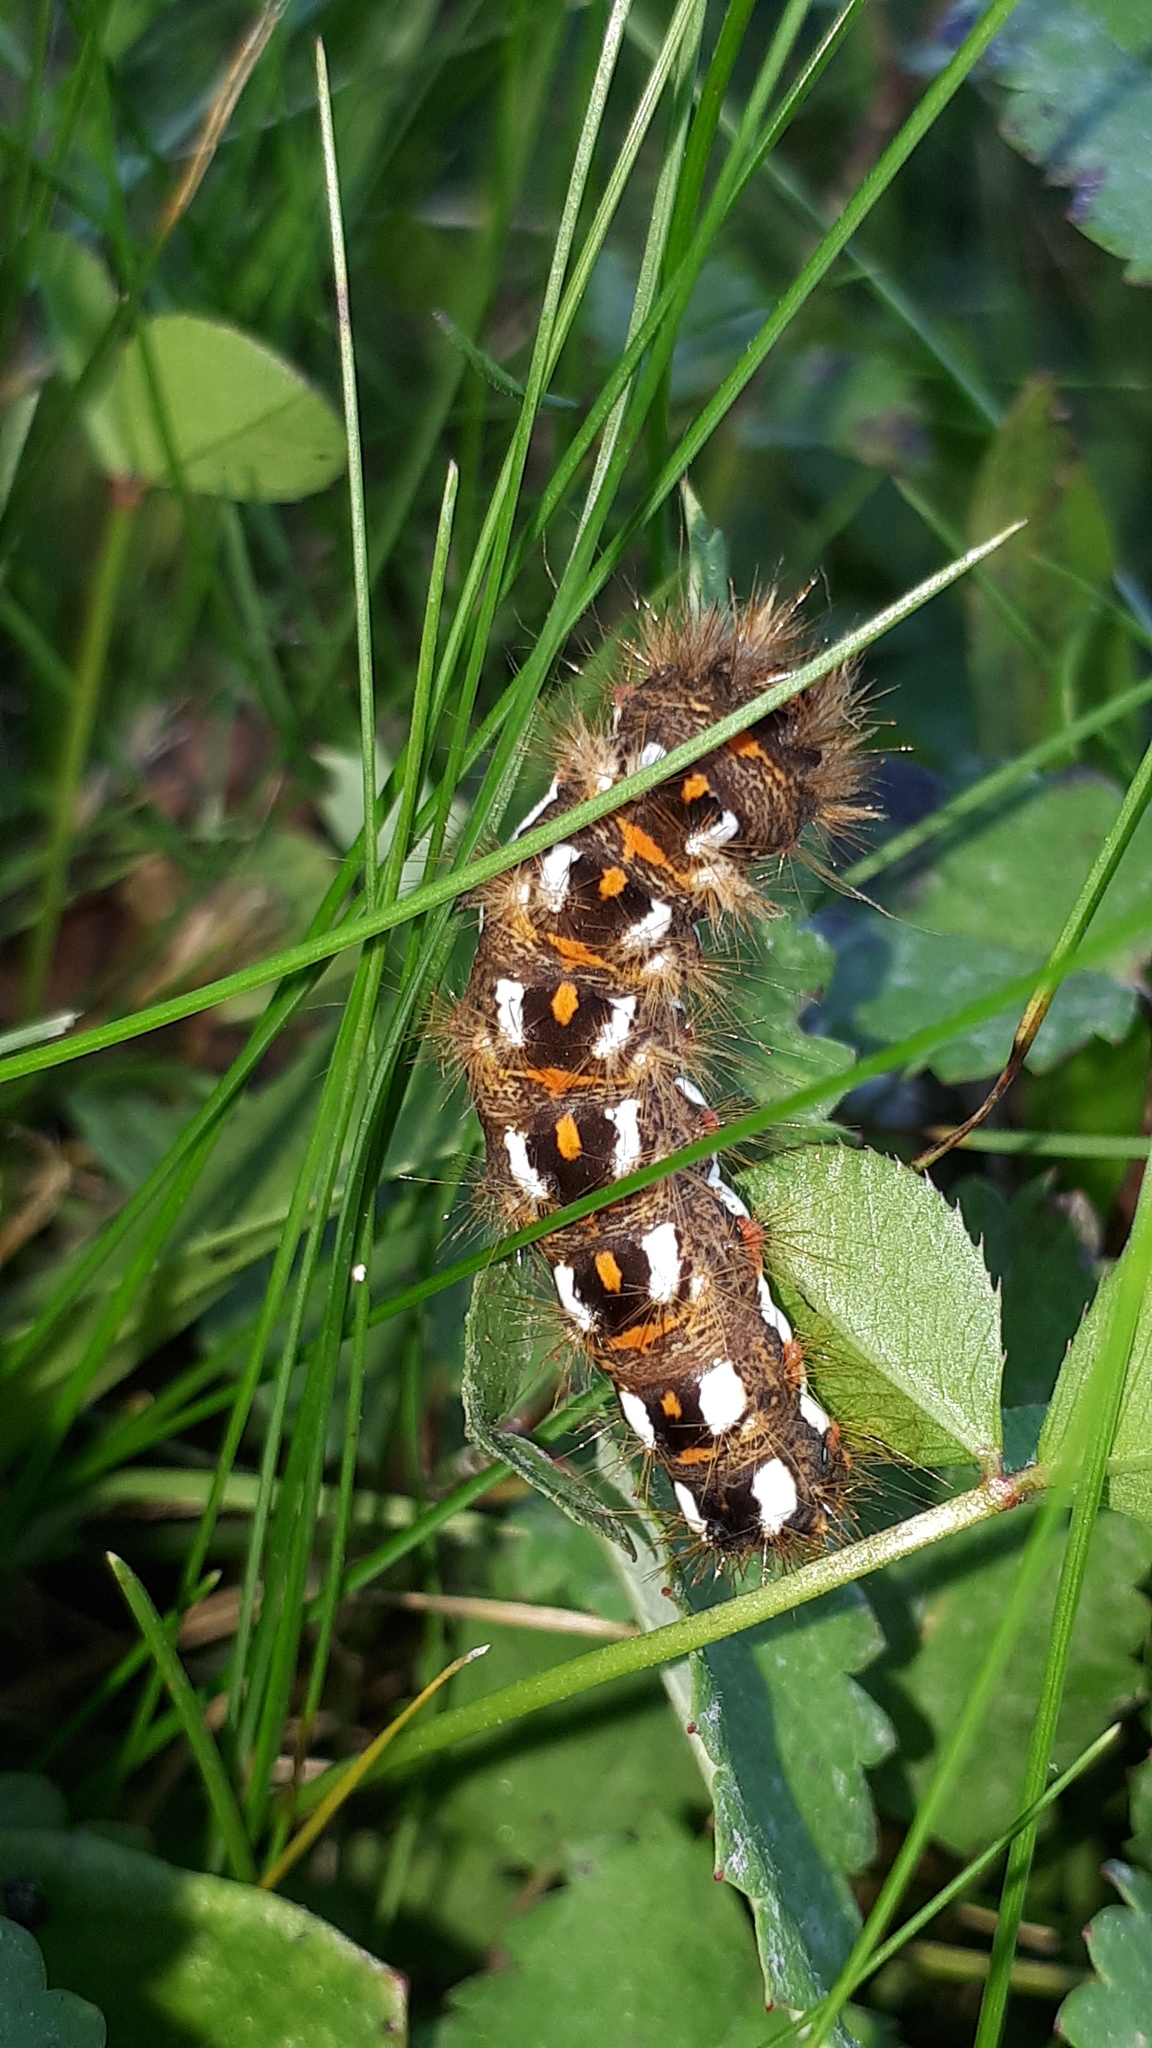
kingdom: Animalia
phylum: Arthropoda
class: Insecta
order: Lepidoptera
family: Noctuidae
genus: Acronicta
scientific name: Acronicta rumicis
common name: Knot grass
